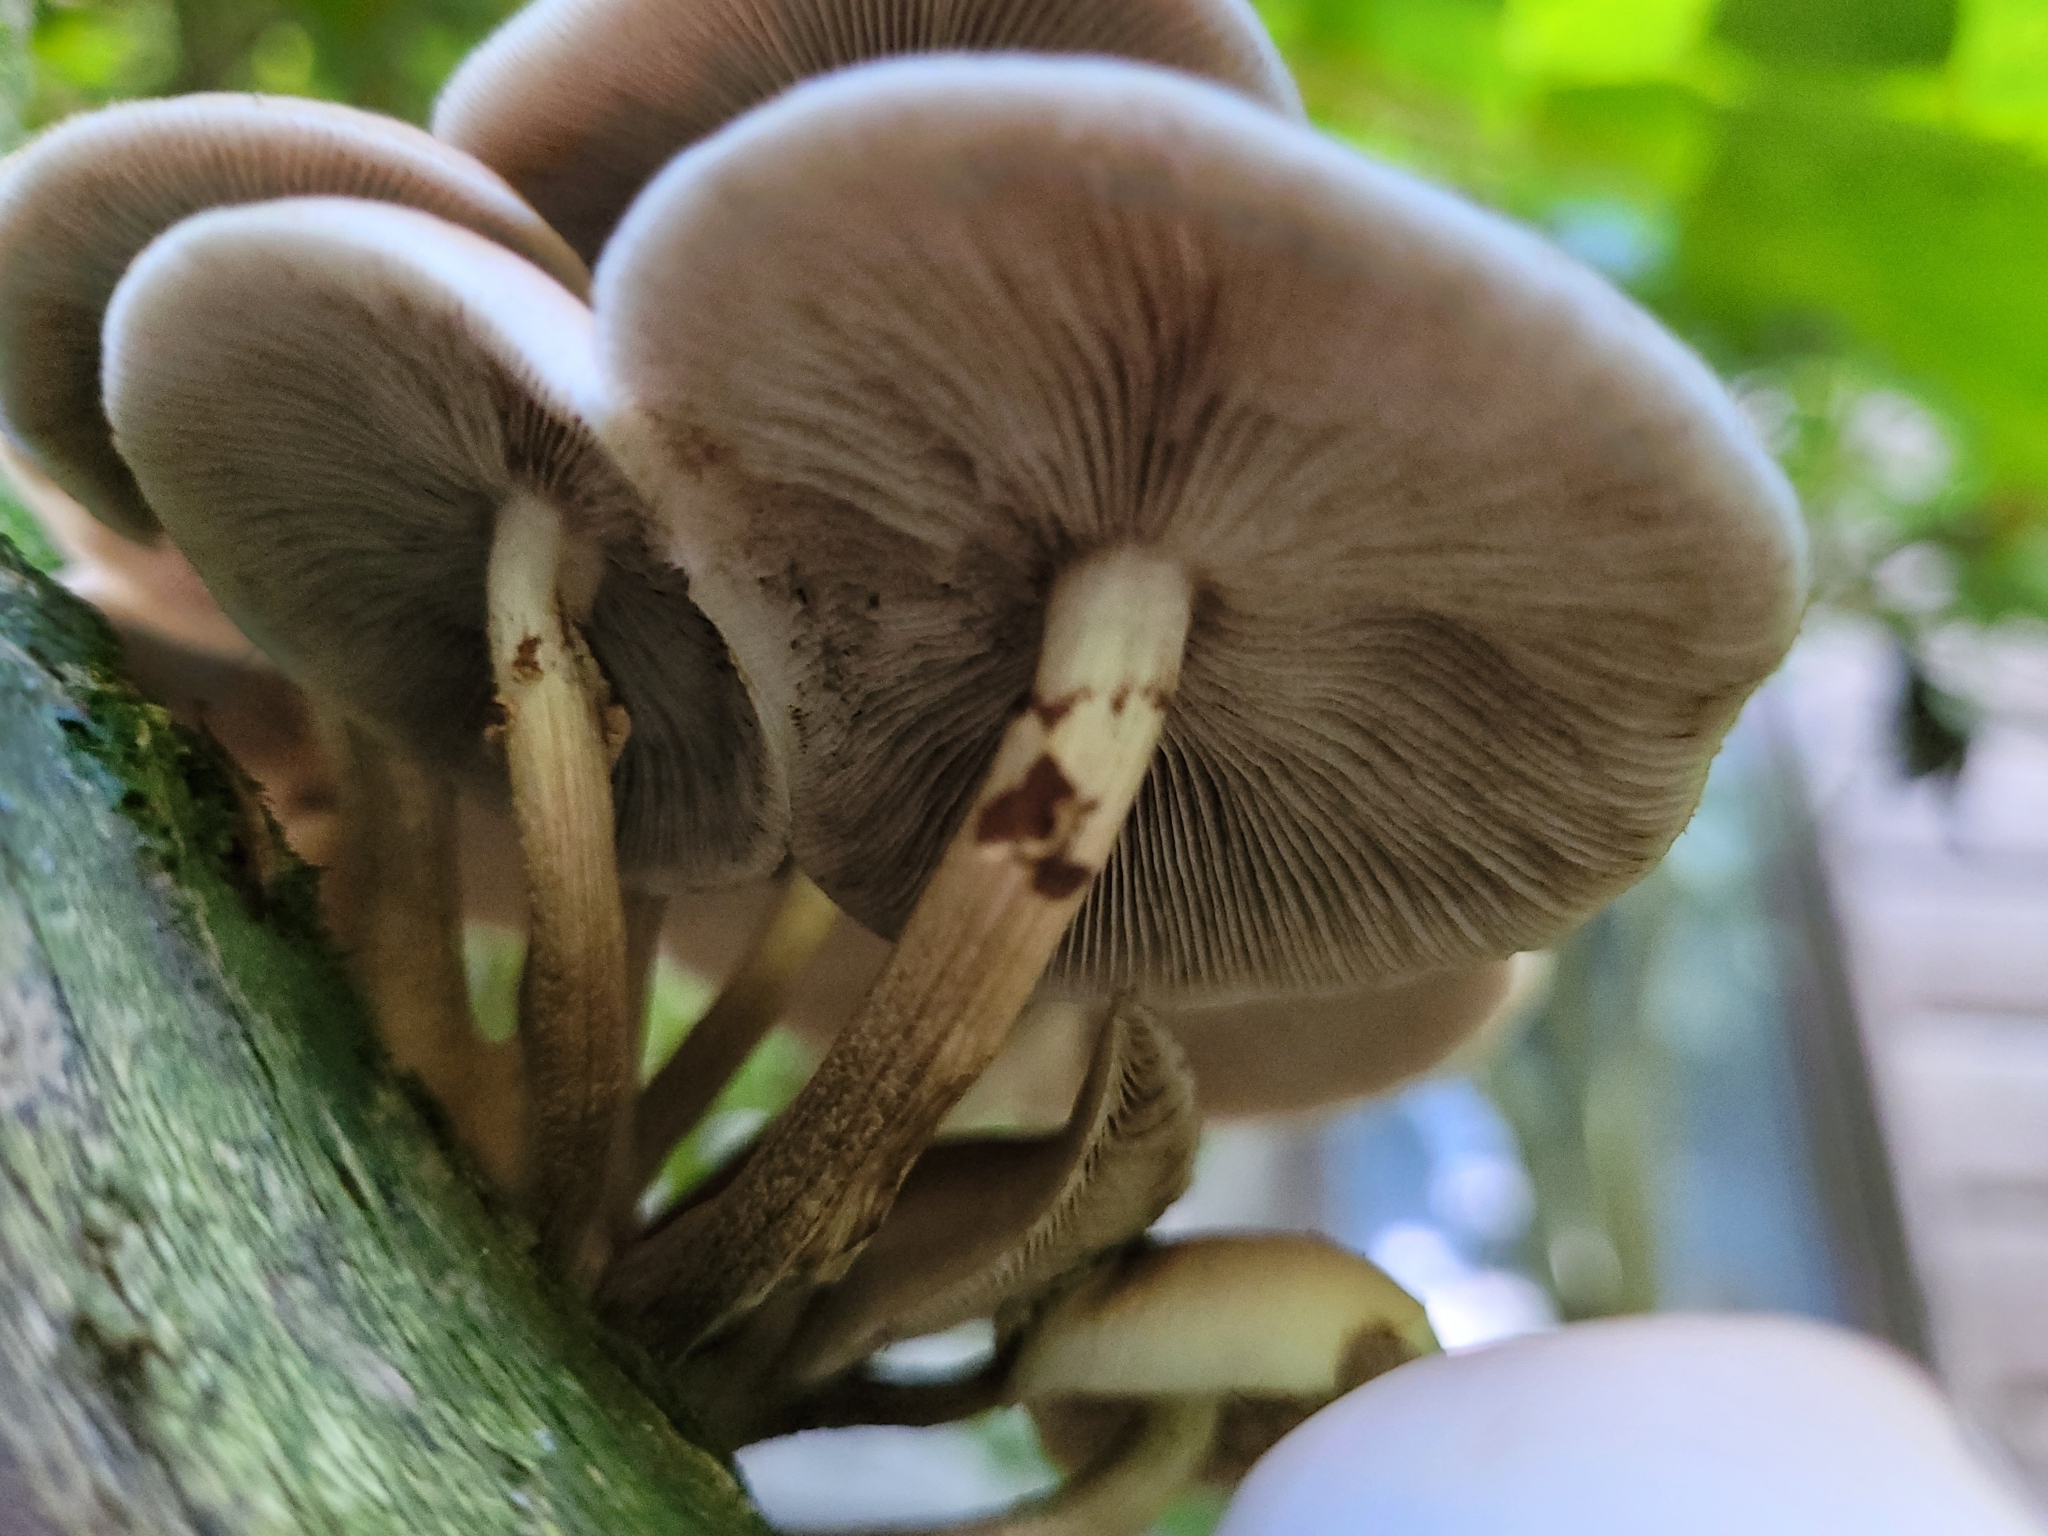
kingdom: Fungi
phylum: Basidiomycota
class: Agaricomycetes
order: Agaricales
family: Tubariaceae
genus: Cyclocybe
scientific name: Cyclocybe parasitica
